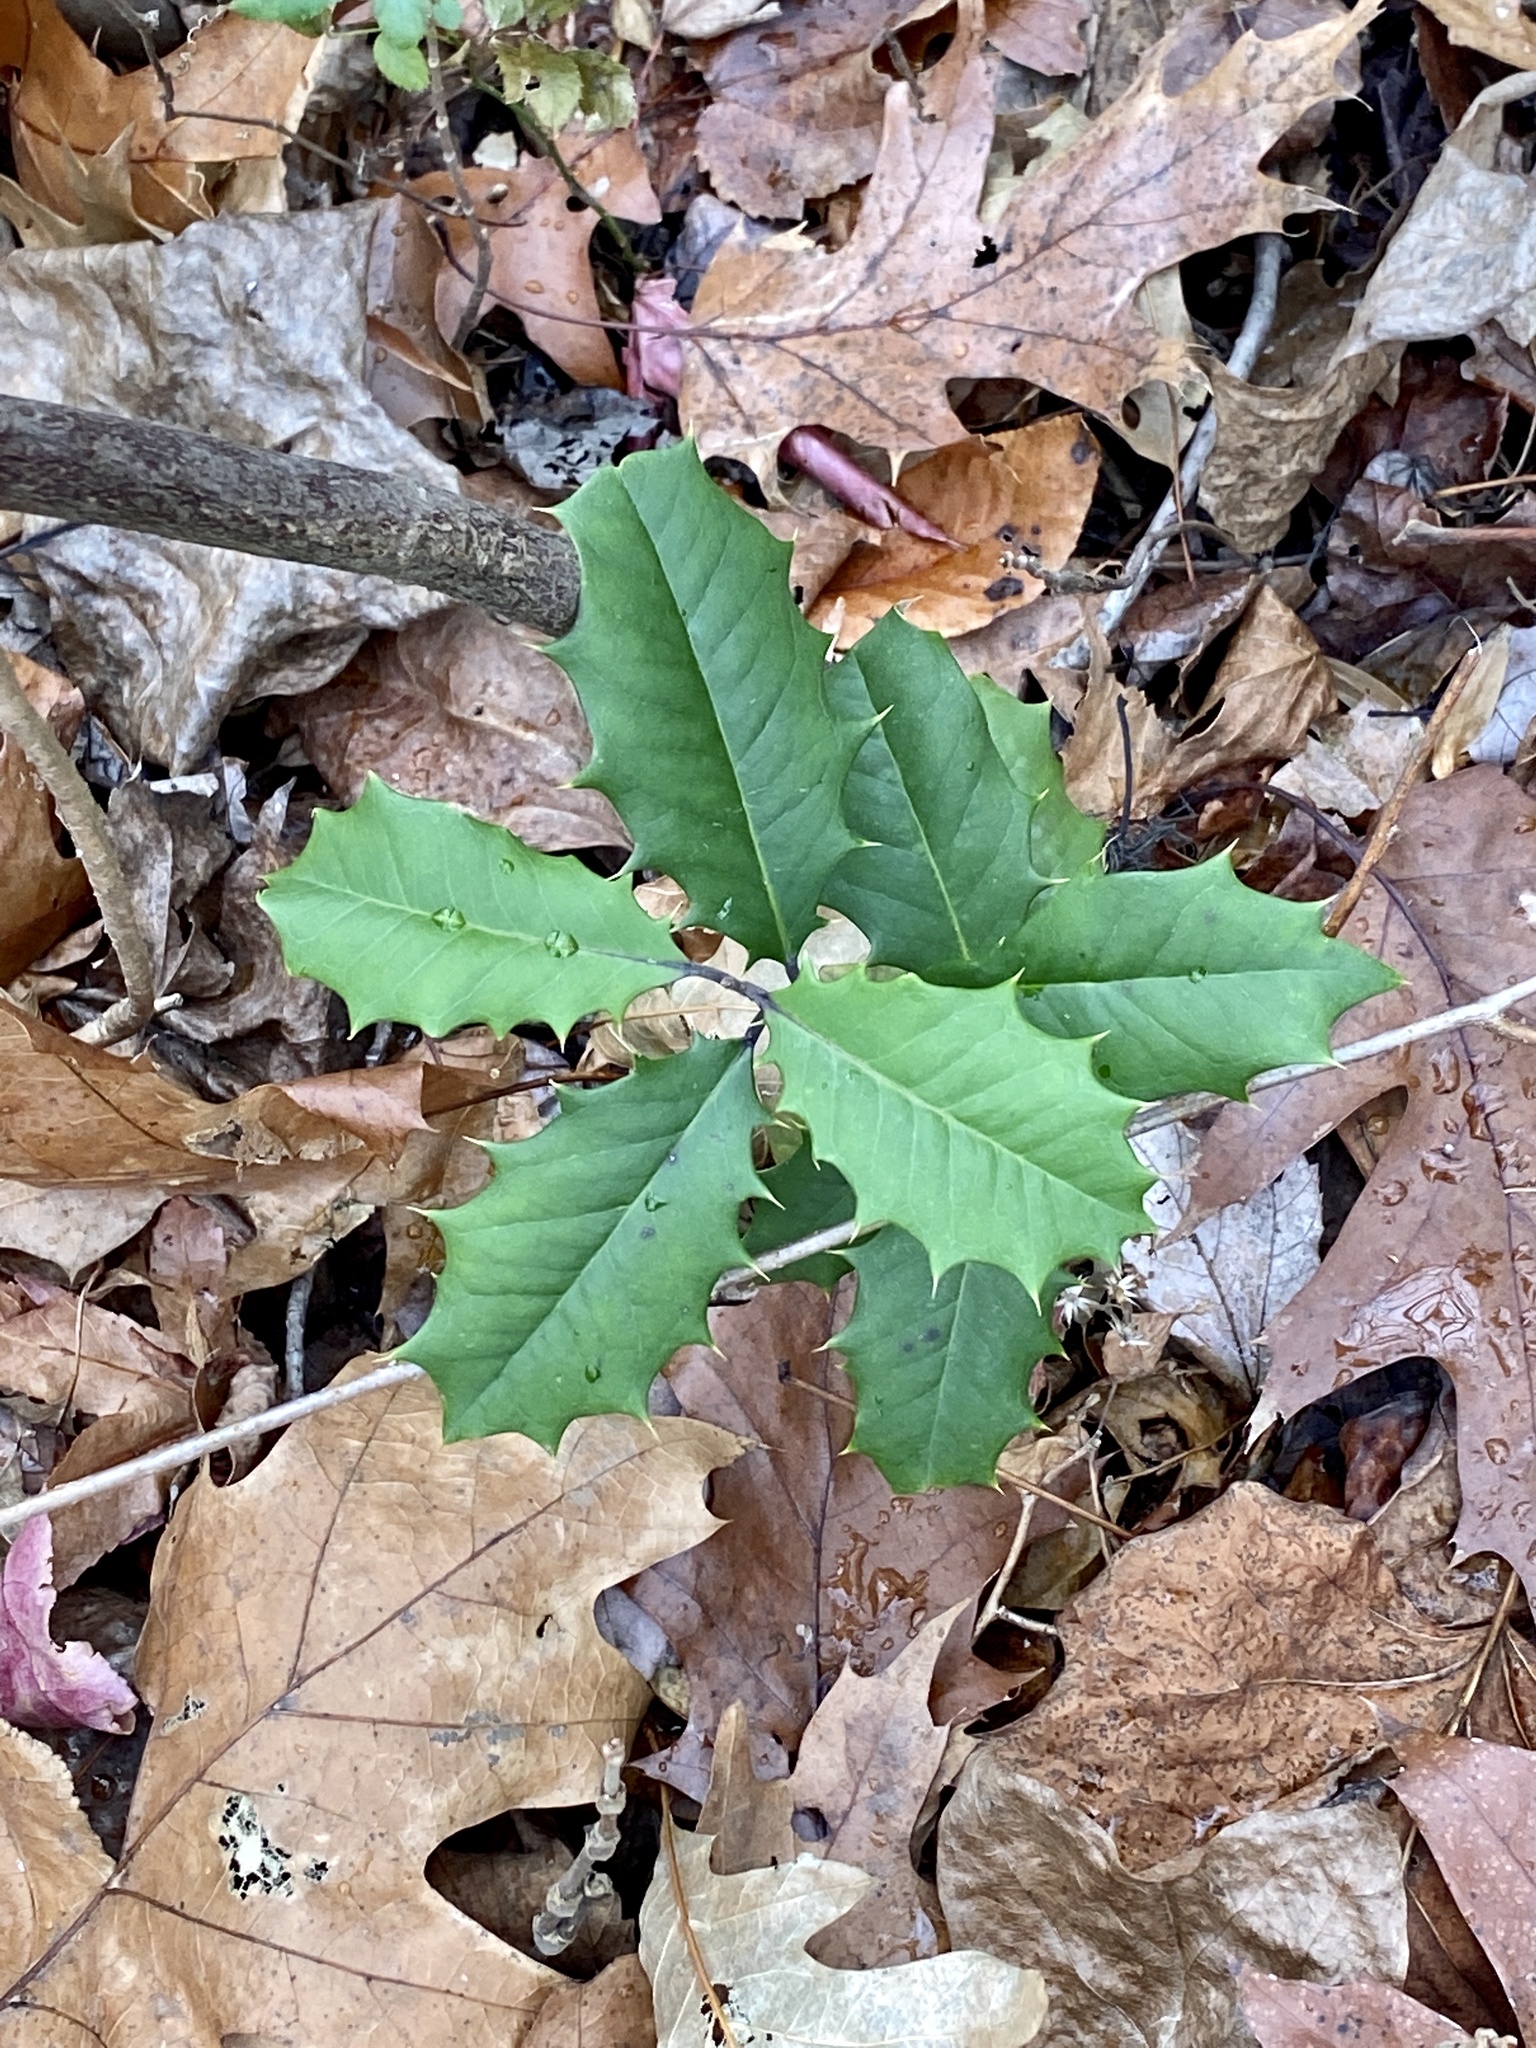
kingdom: Plantae
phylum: Tracheophyta
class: Magnoliopsida
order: Aquifoliales
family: Aquifoliaceae
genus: Ilex
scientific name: Ilex opaca
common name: American holly
